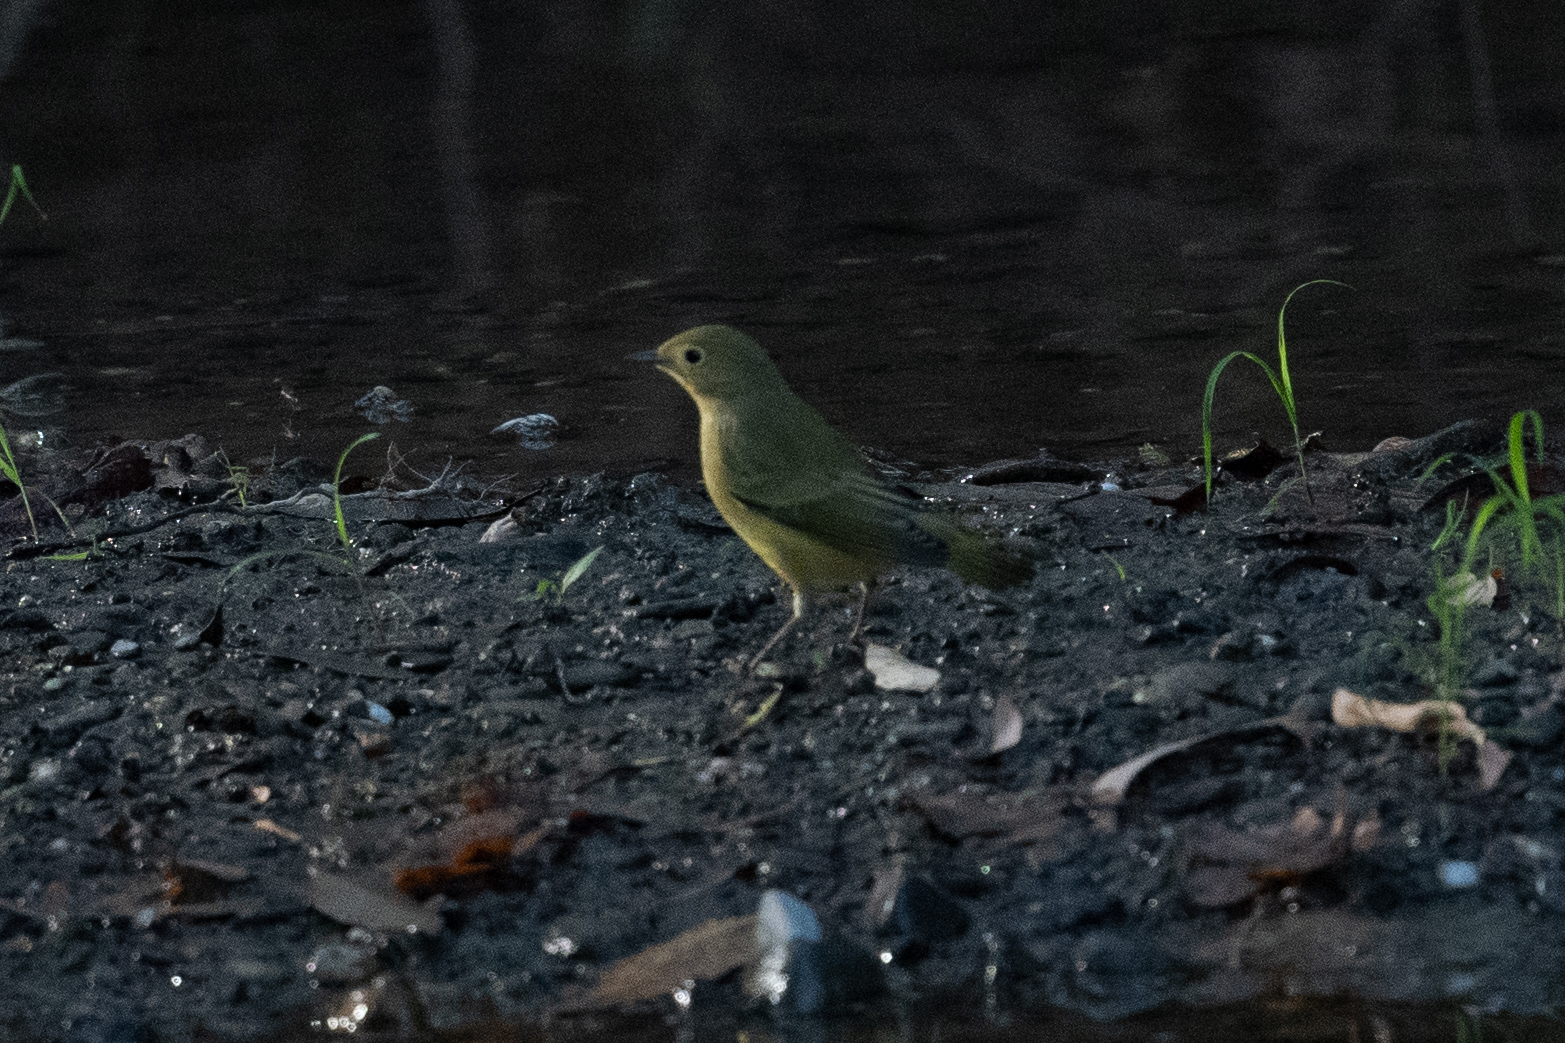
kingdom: Animalia
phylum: Chordata
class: Aves
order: Passeriformes
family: Parulidae
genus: Setophaga
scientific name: Setophaga petechia
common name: Yellow warbler
